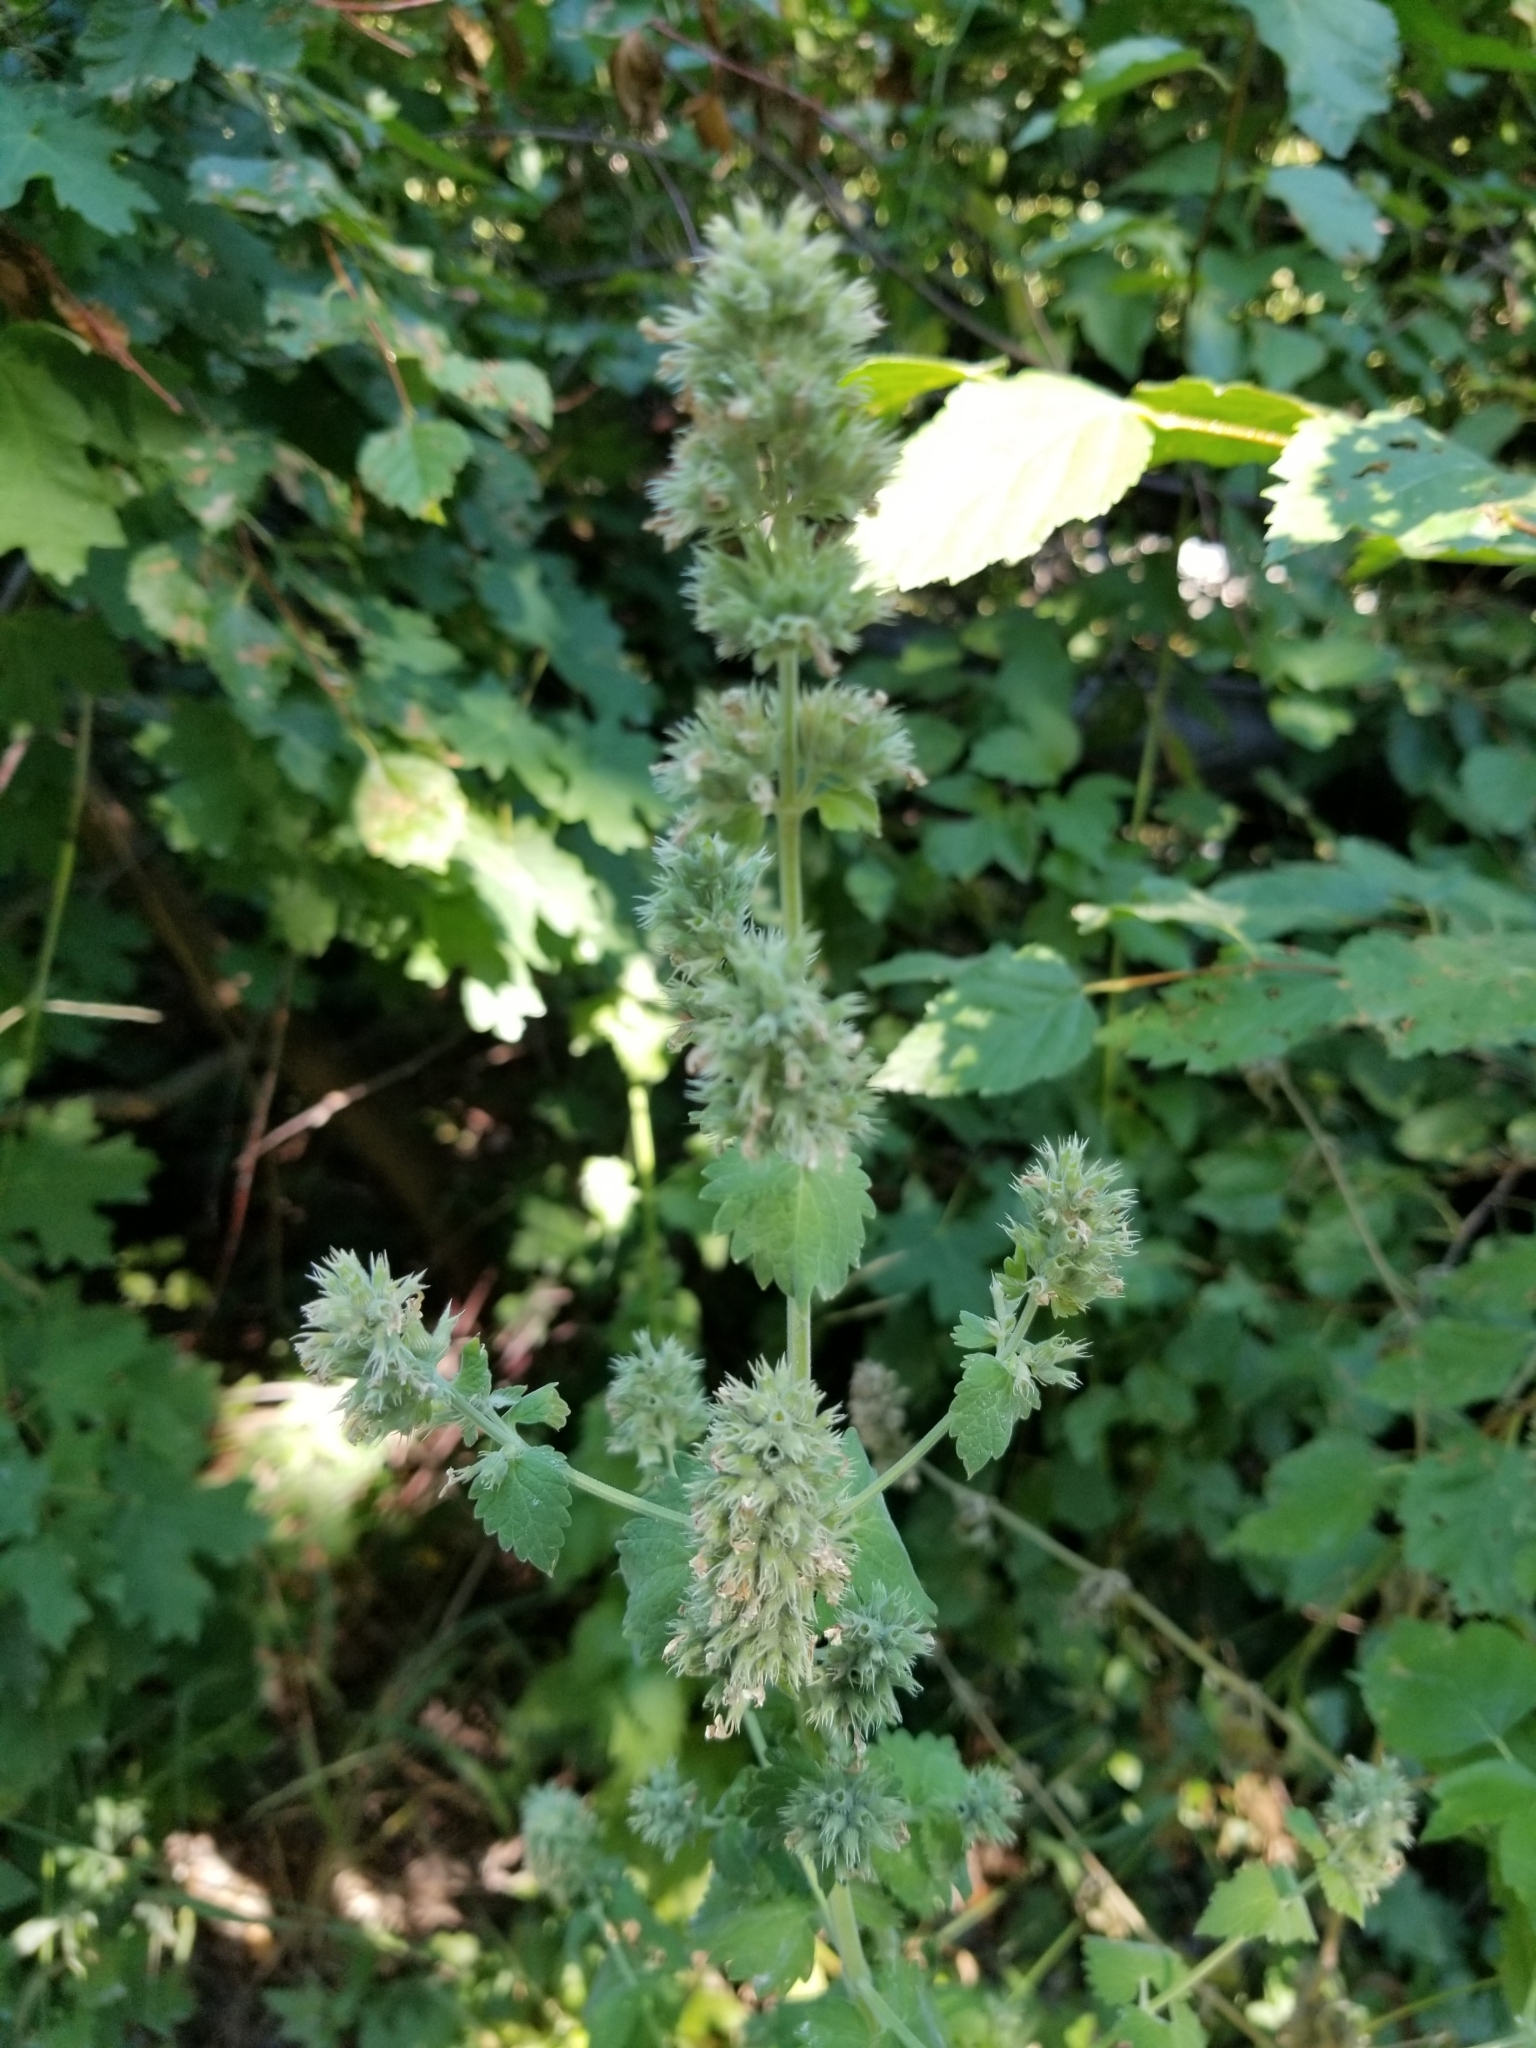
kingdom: Plantae
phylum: Tracheophyta
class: Magnoliopsida
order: Lamiales
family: Lamiaceae
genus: Nepeta
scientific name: Nepeta cataria
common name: Catnip
